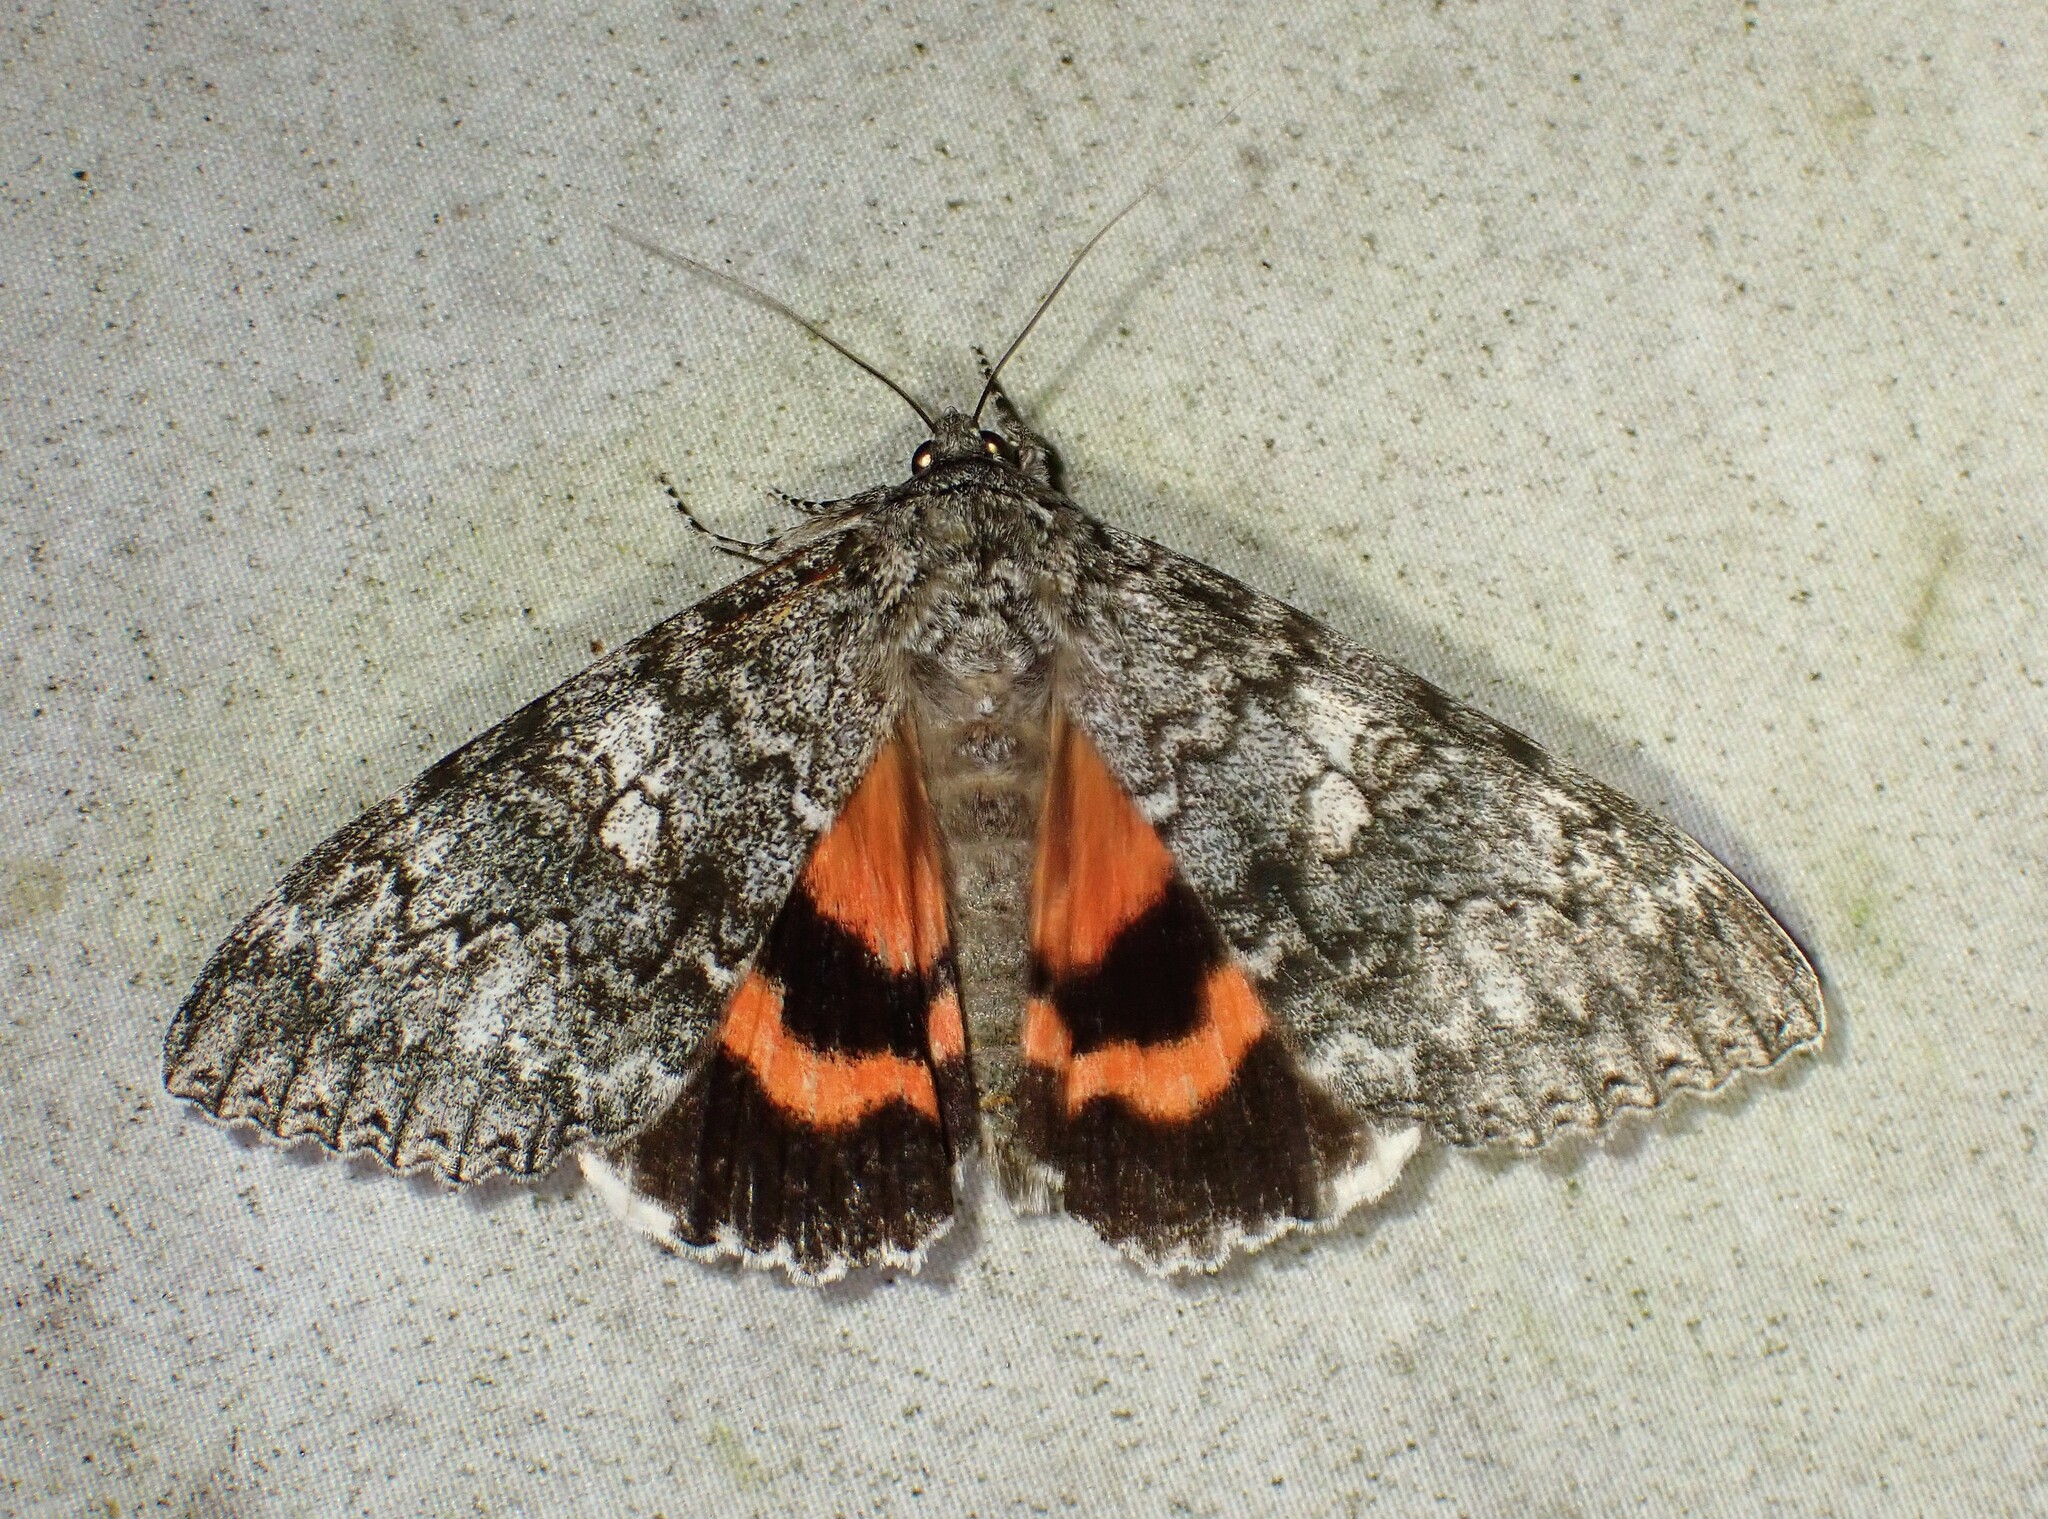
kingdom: Animalia
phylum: Arthropoda
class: Insecta
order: Lepidoptera
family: Erebidae
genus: Catocala
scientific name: Catocala unijuga
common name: Once-married underwing
